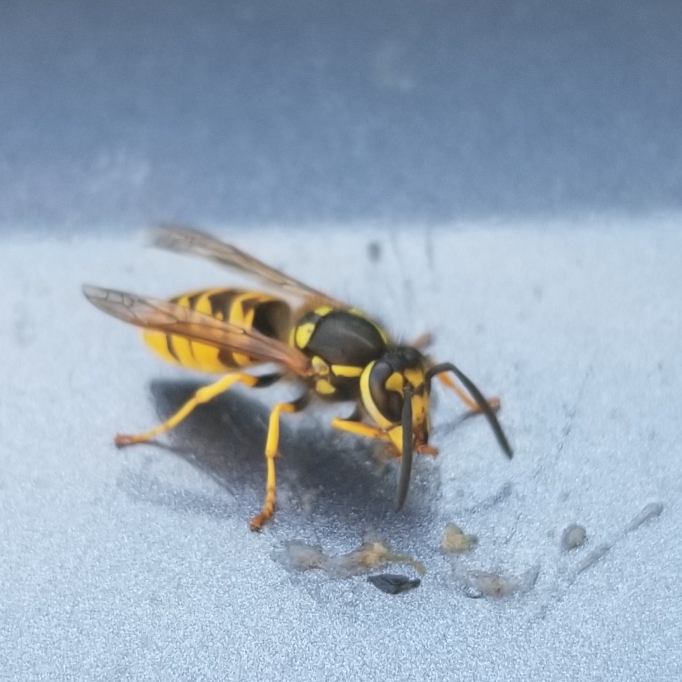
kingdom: Animalia
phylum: Arthropoda
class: Insecta
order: Hymenoptera
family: Vespidae
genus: Vespula
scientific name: Vespula germanica
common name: German wasp
